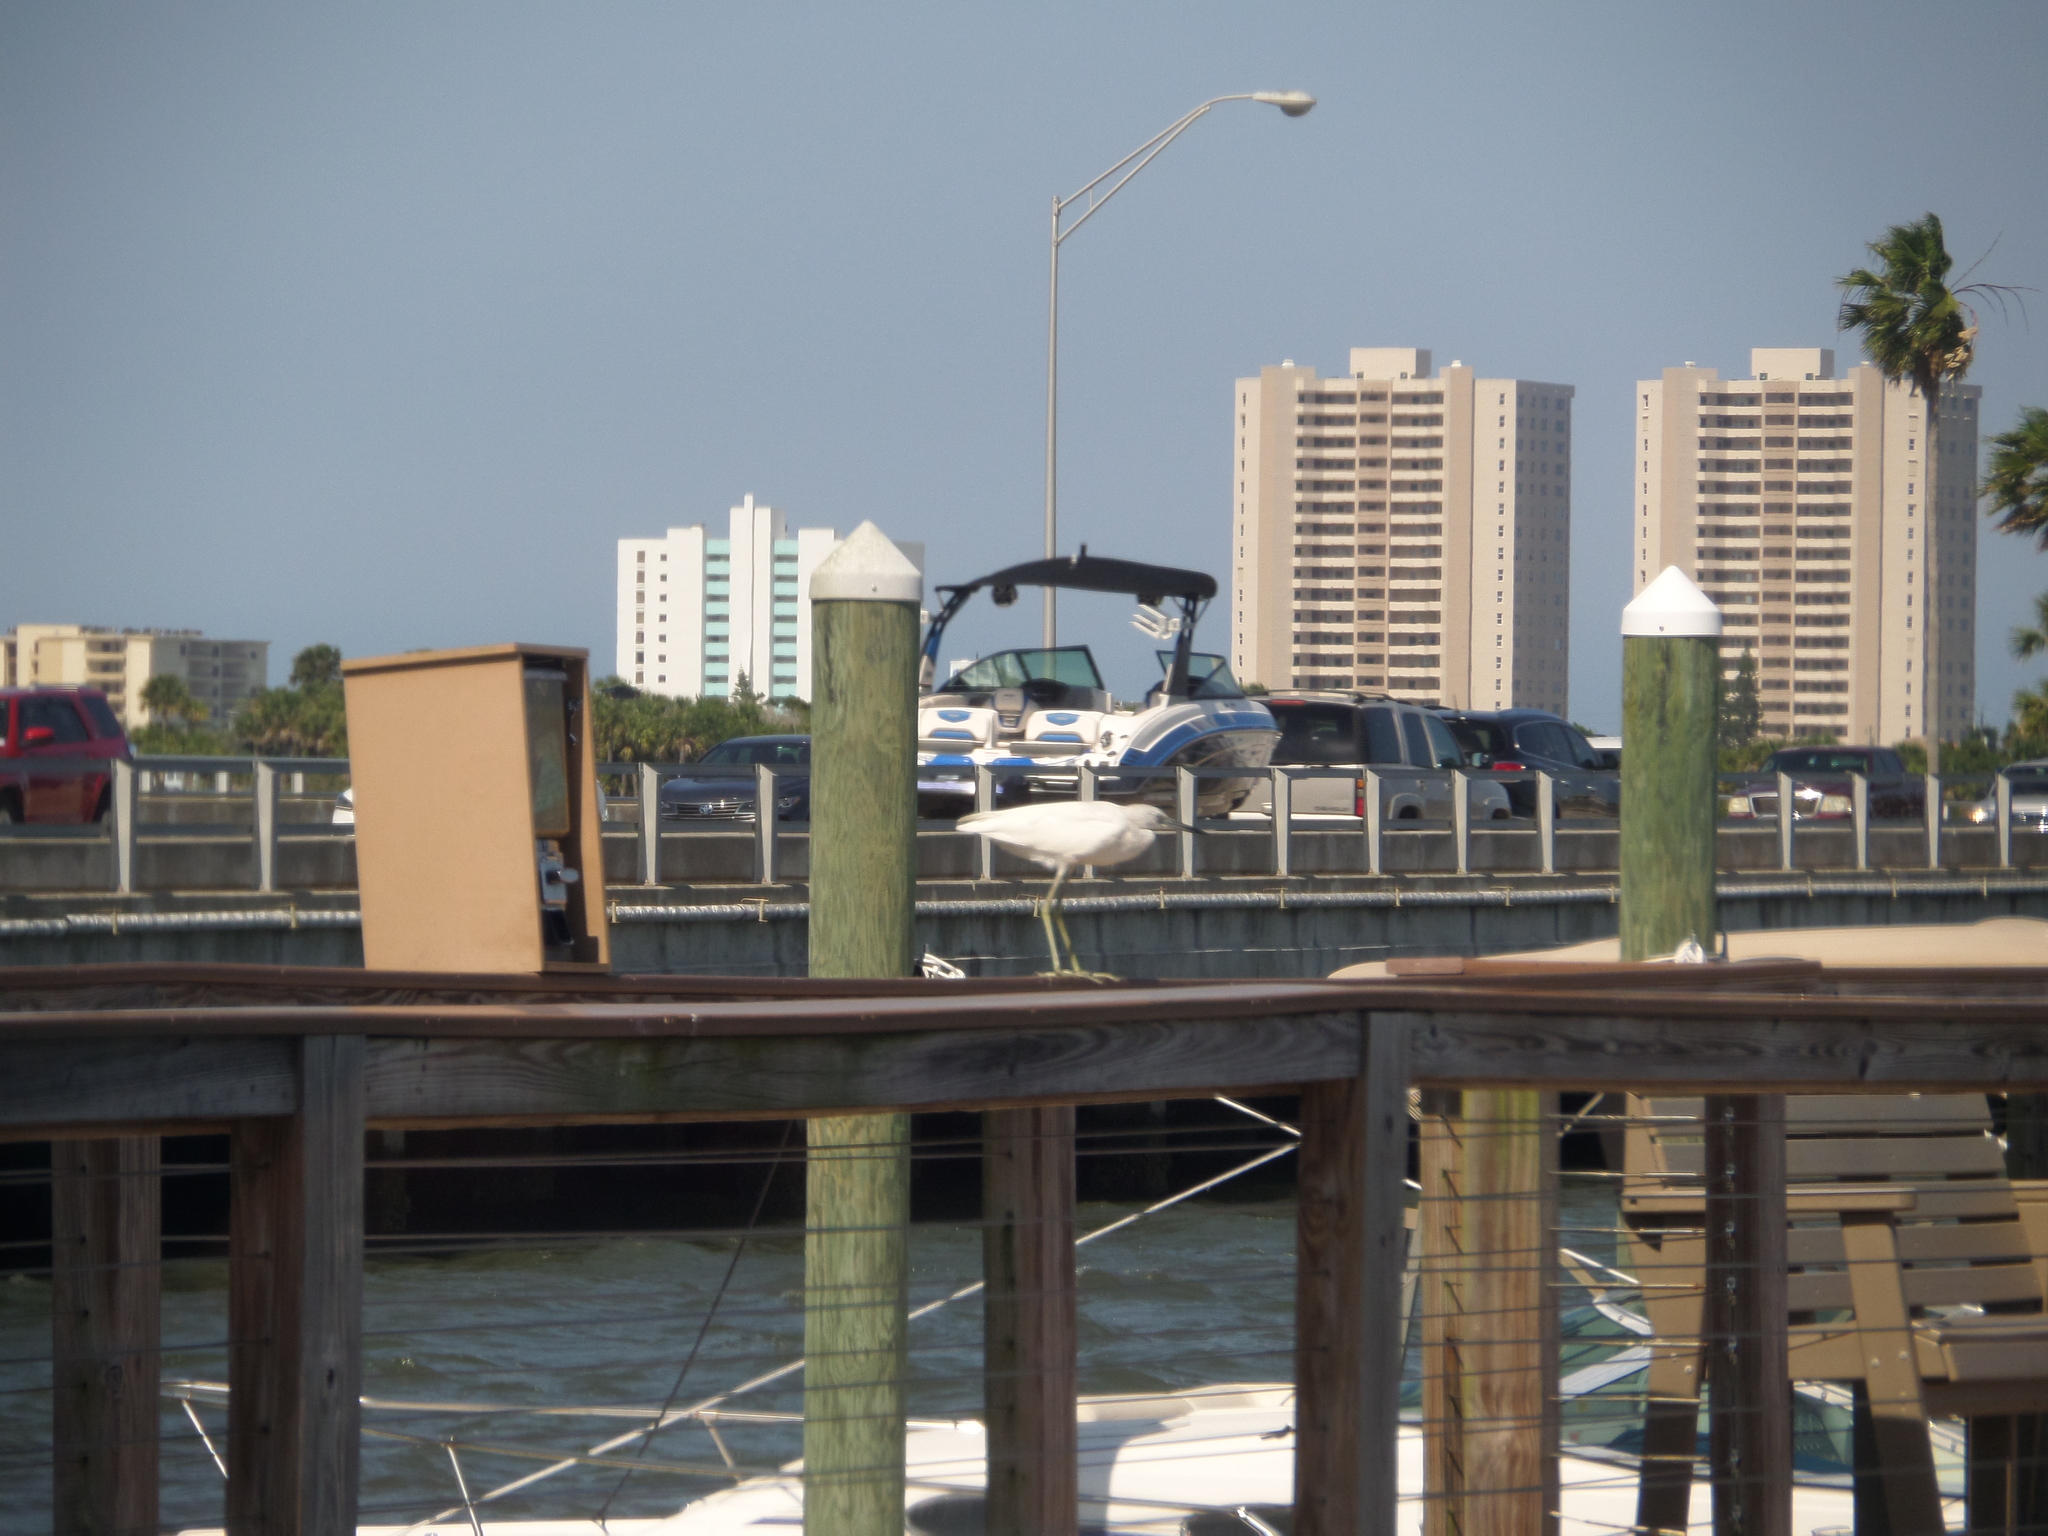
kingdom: Animalia
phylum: Chordata
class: Aves
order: Pelecaniformes
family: Ardeidae
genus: Egretta
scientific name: Egretta caerulea
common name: Little blue heron
